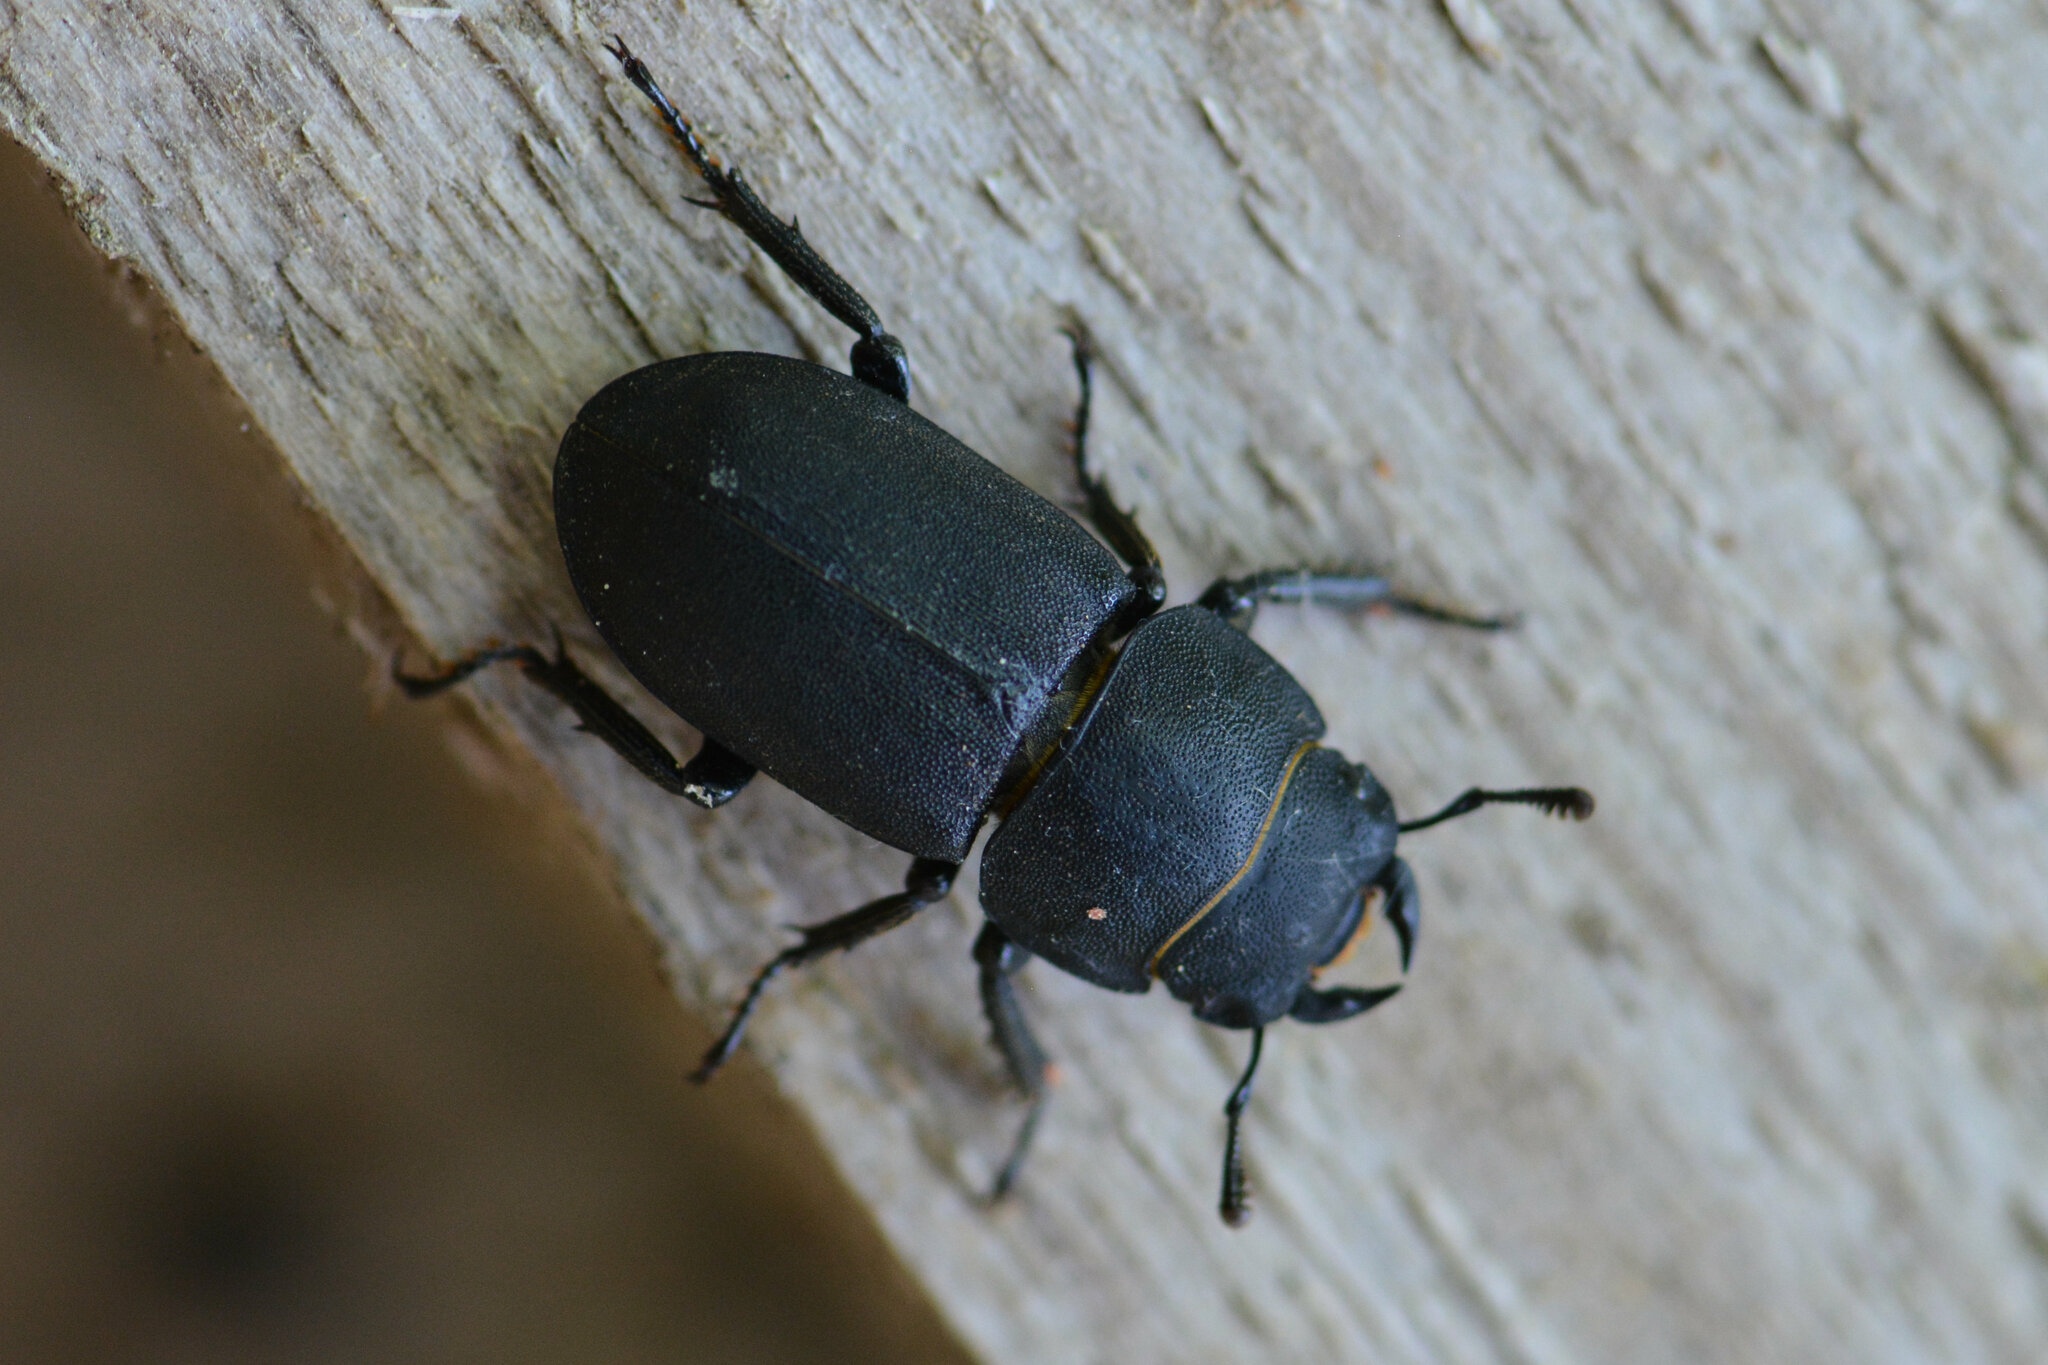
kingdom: Animalia
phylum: Arthropoda
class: Insecta
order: Coleoptera
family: Lucanidae
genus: Dorcus
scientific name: Dorcus parallelipipedus
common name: Lesser stag beetle
